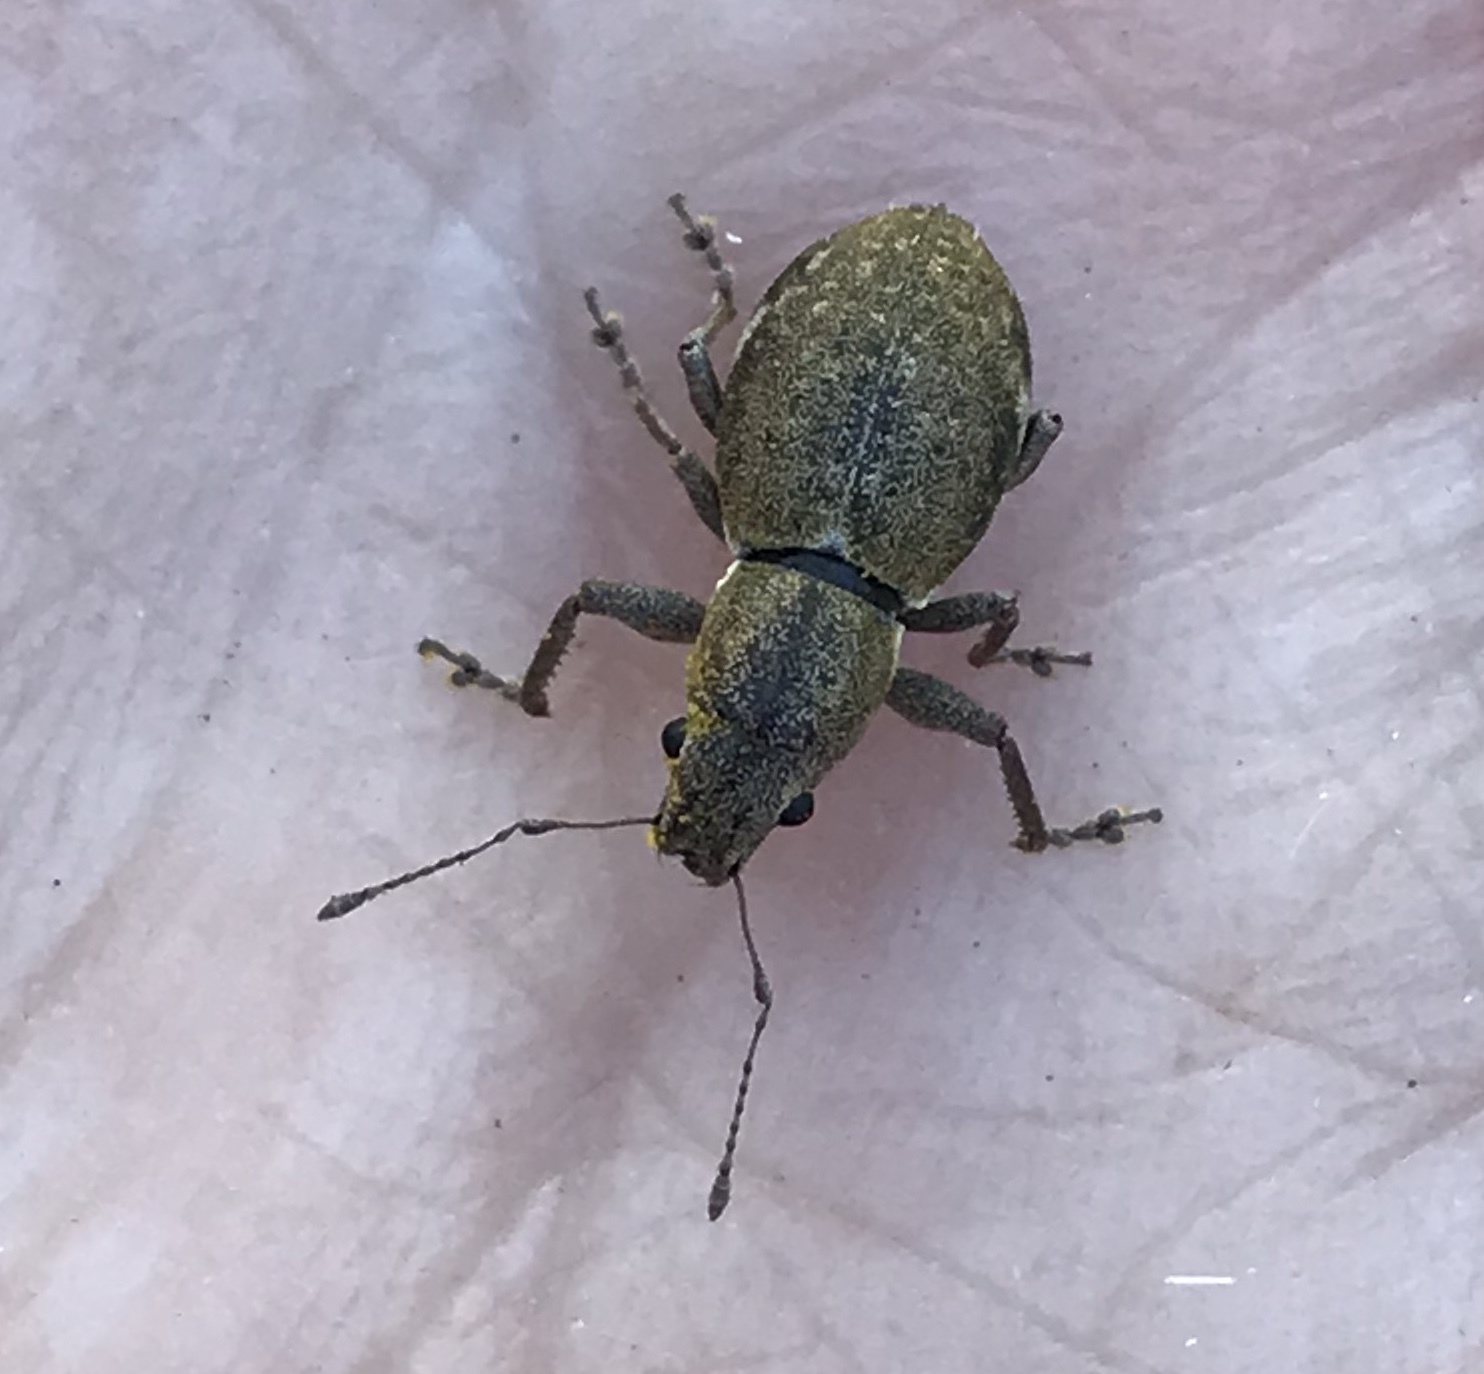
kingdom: Animalia
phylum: Arthropoda
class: Insecta
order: Coleoptera
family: Curculionidae
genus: Naupactus
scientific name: Naupactus cervinus
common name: Fuller rose beetle
